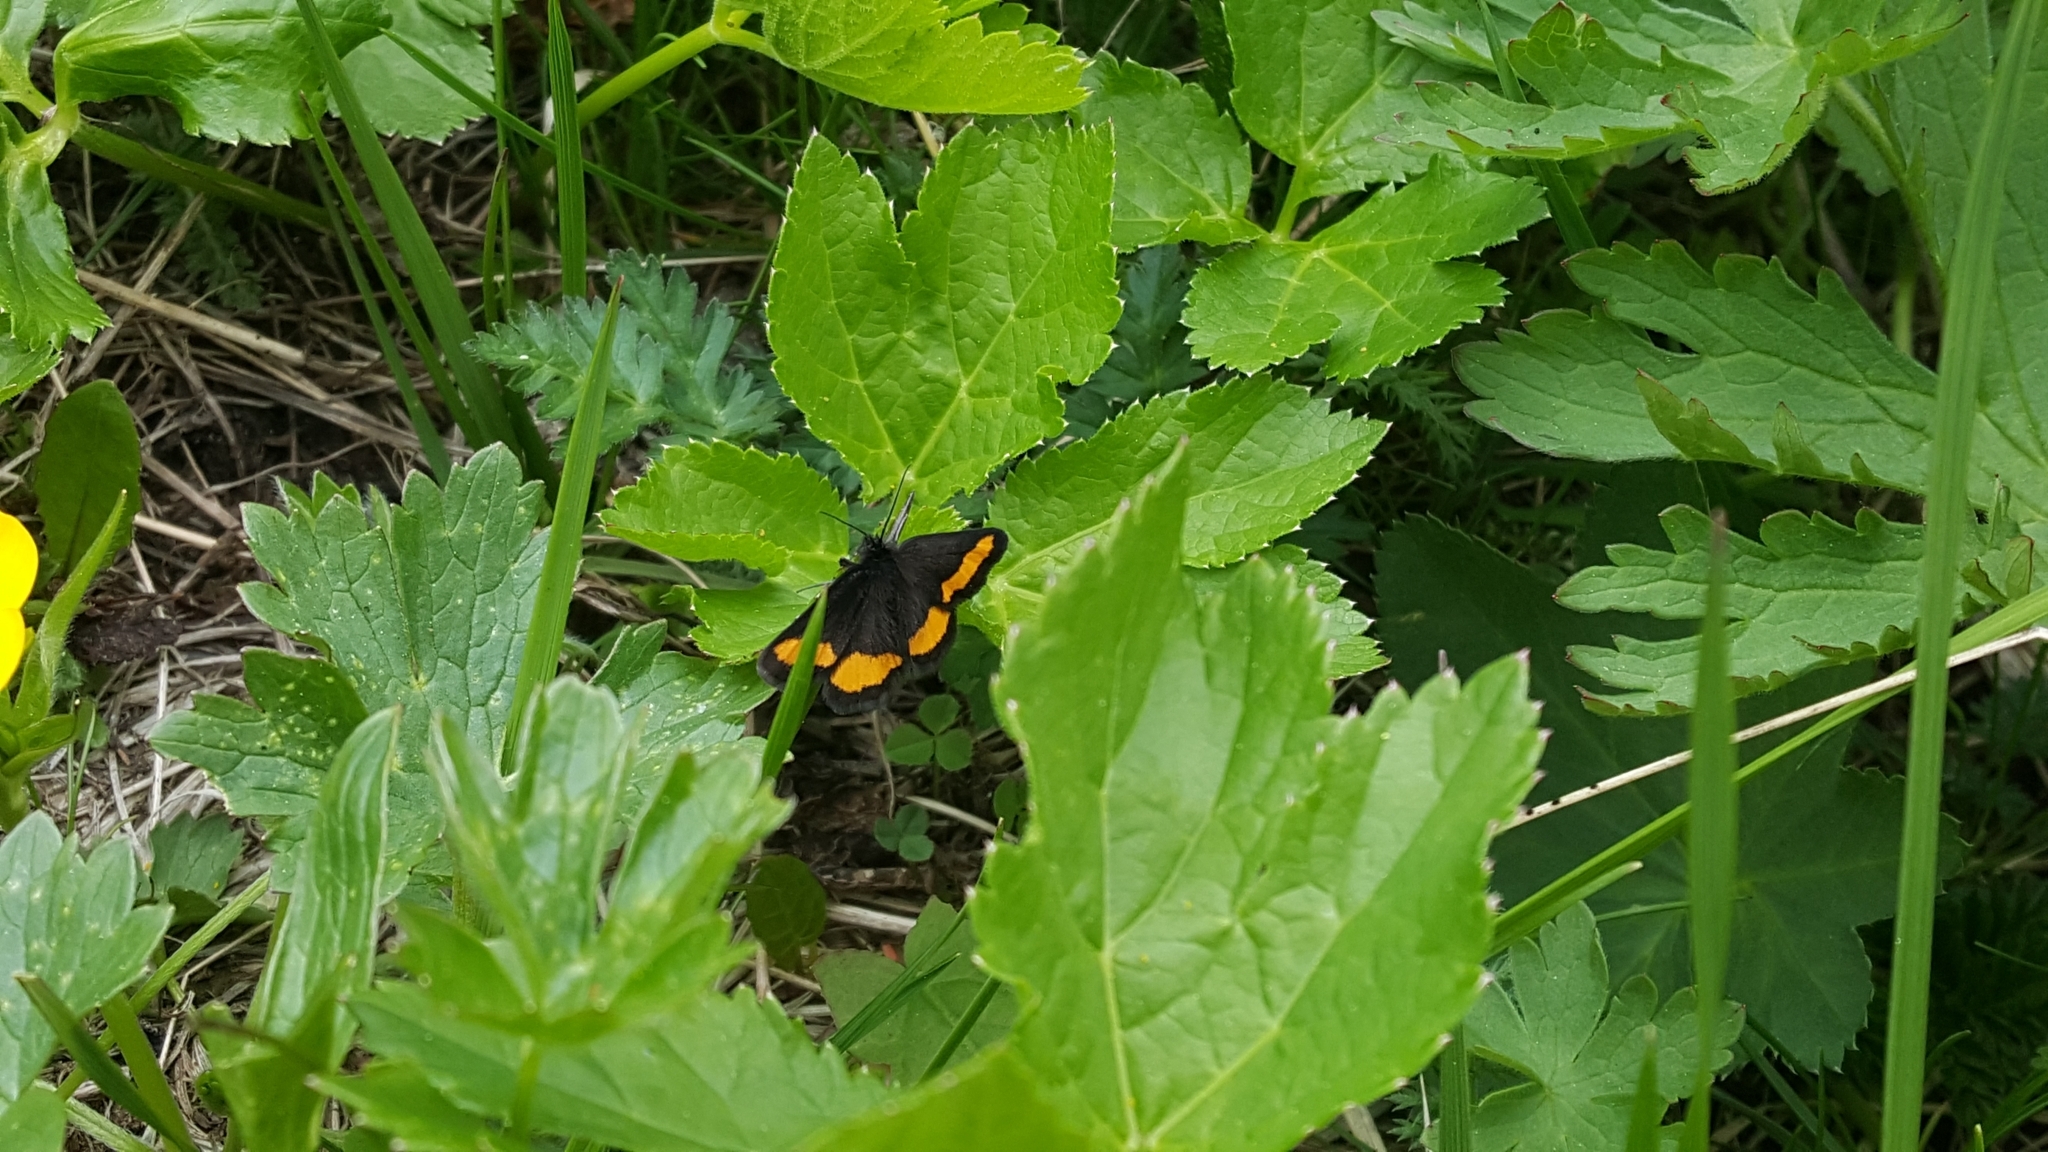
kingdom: Animalia
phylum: Arthropoda
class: Insecta
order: Lepidoptera
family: Geometridae
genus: Psodos
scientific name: Psodos quadrifaria
